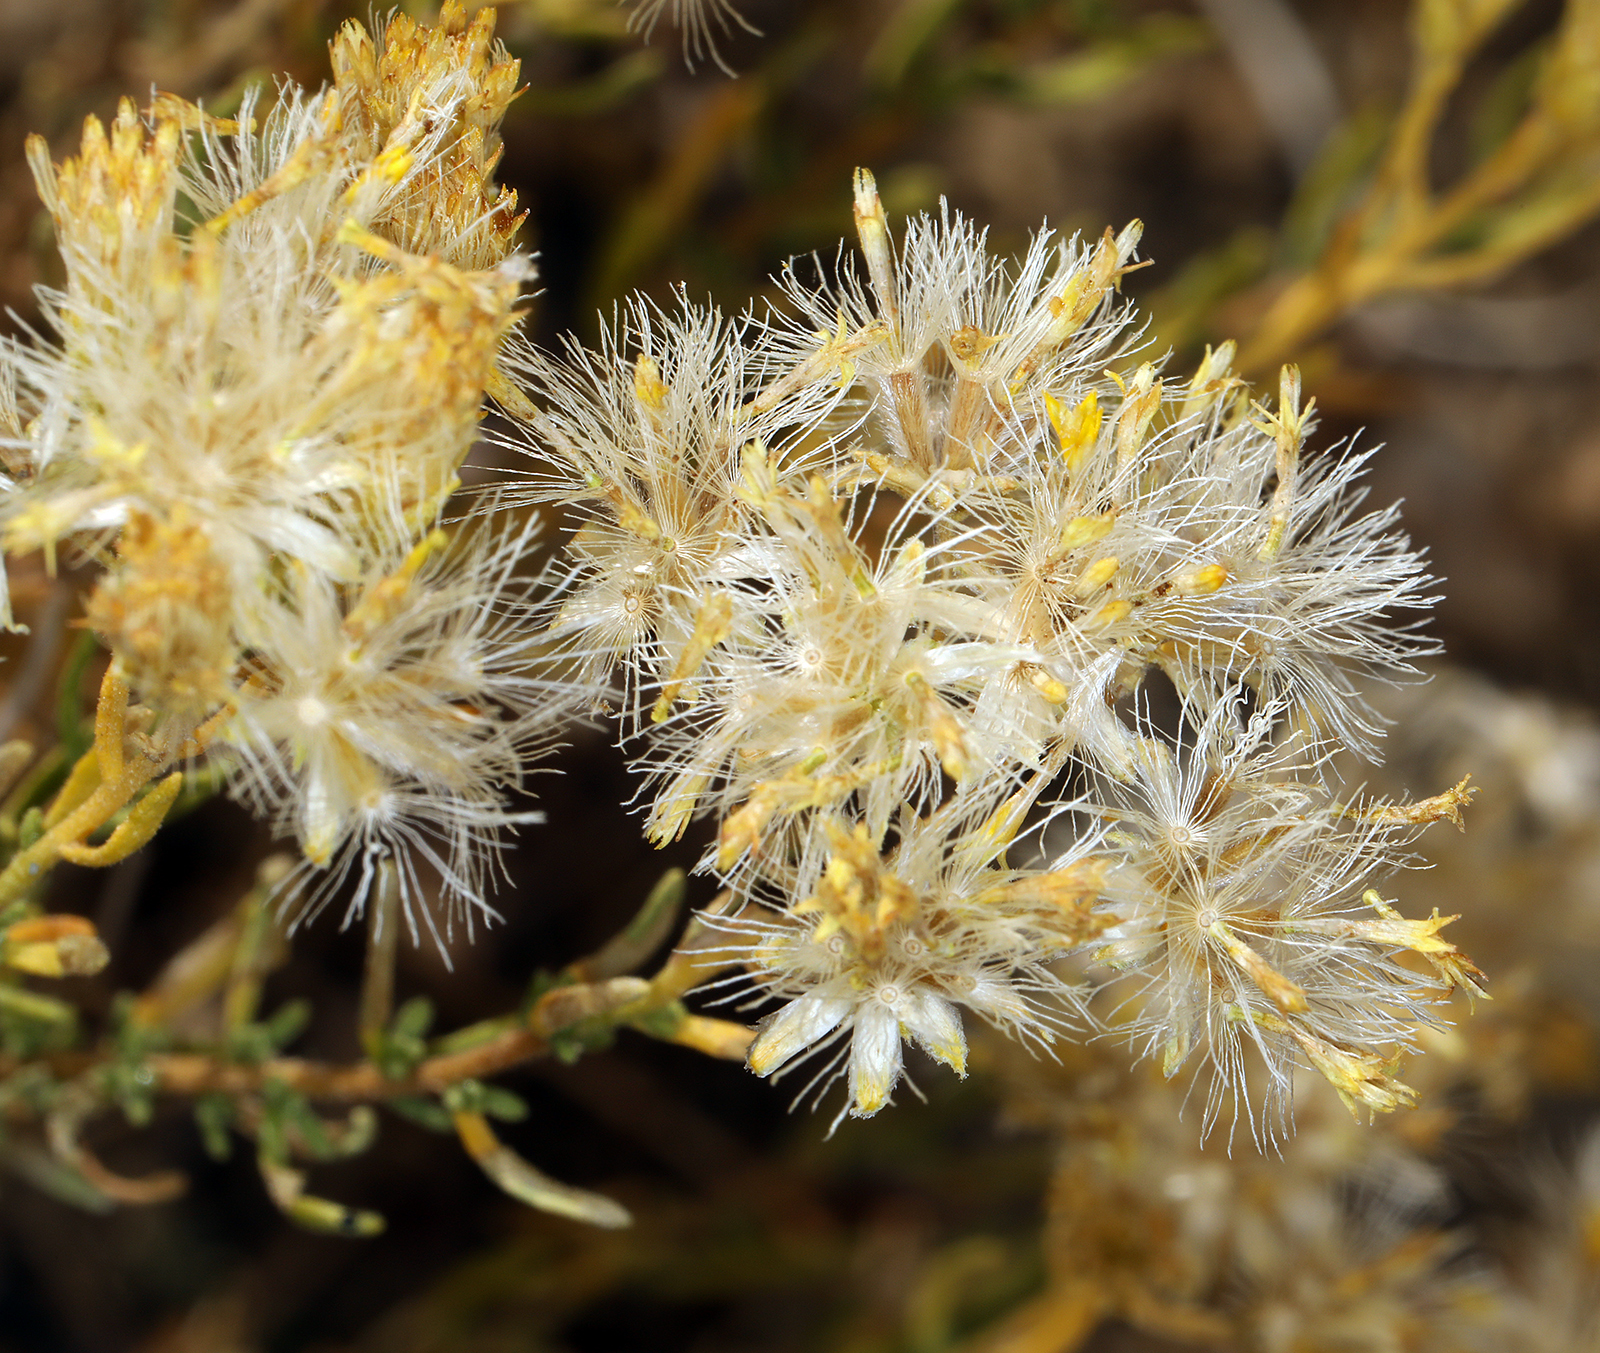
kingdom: Plantae
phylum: Tracheophyta
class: Magnoliopsida
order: Asterales
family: Asteraceae
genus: Ericameria
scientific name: Ericameria cooperi
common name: Cooper's goldenbush
